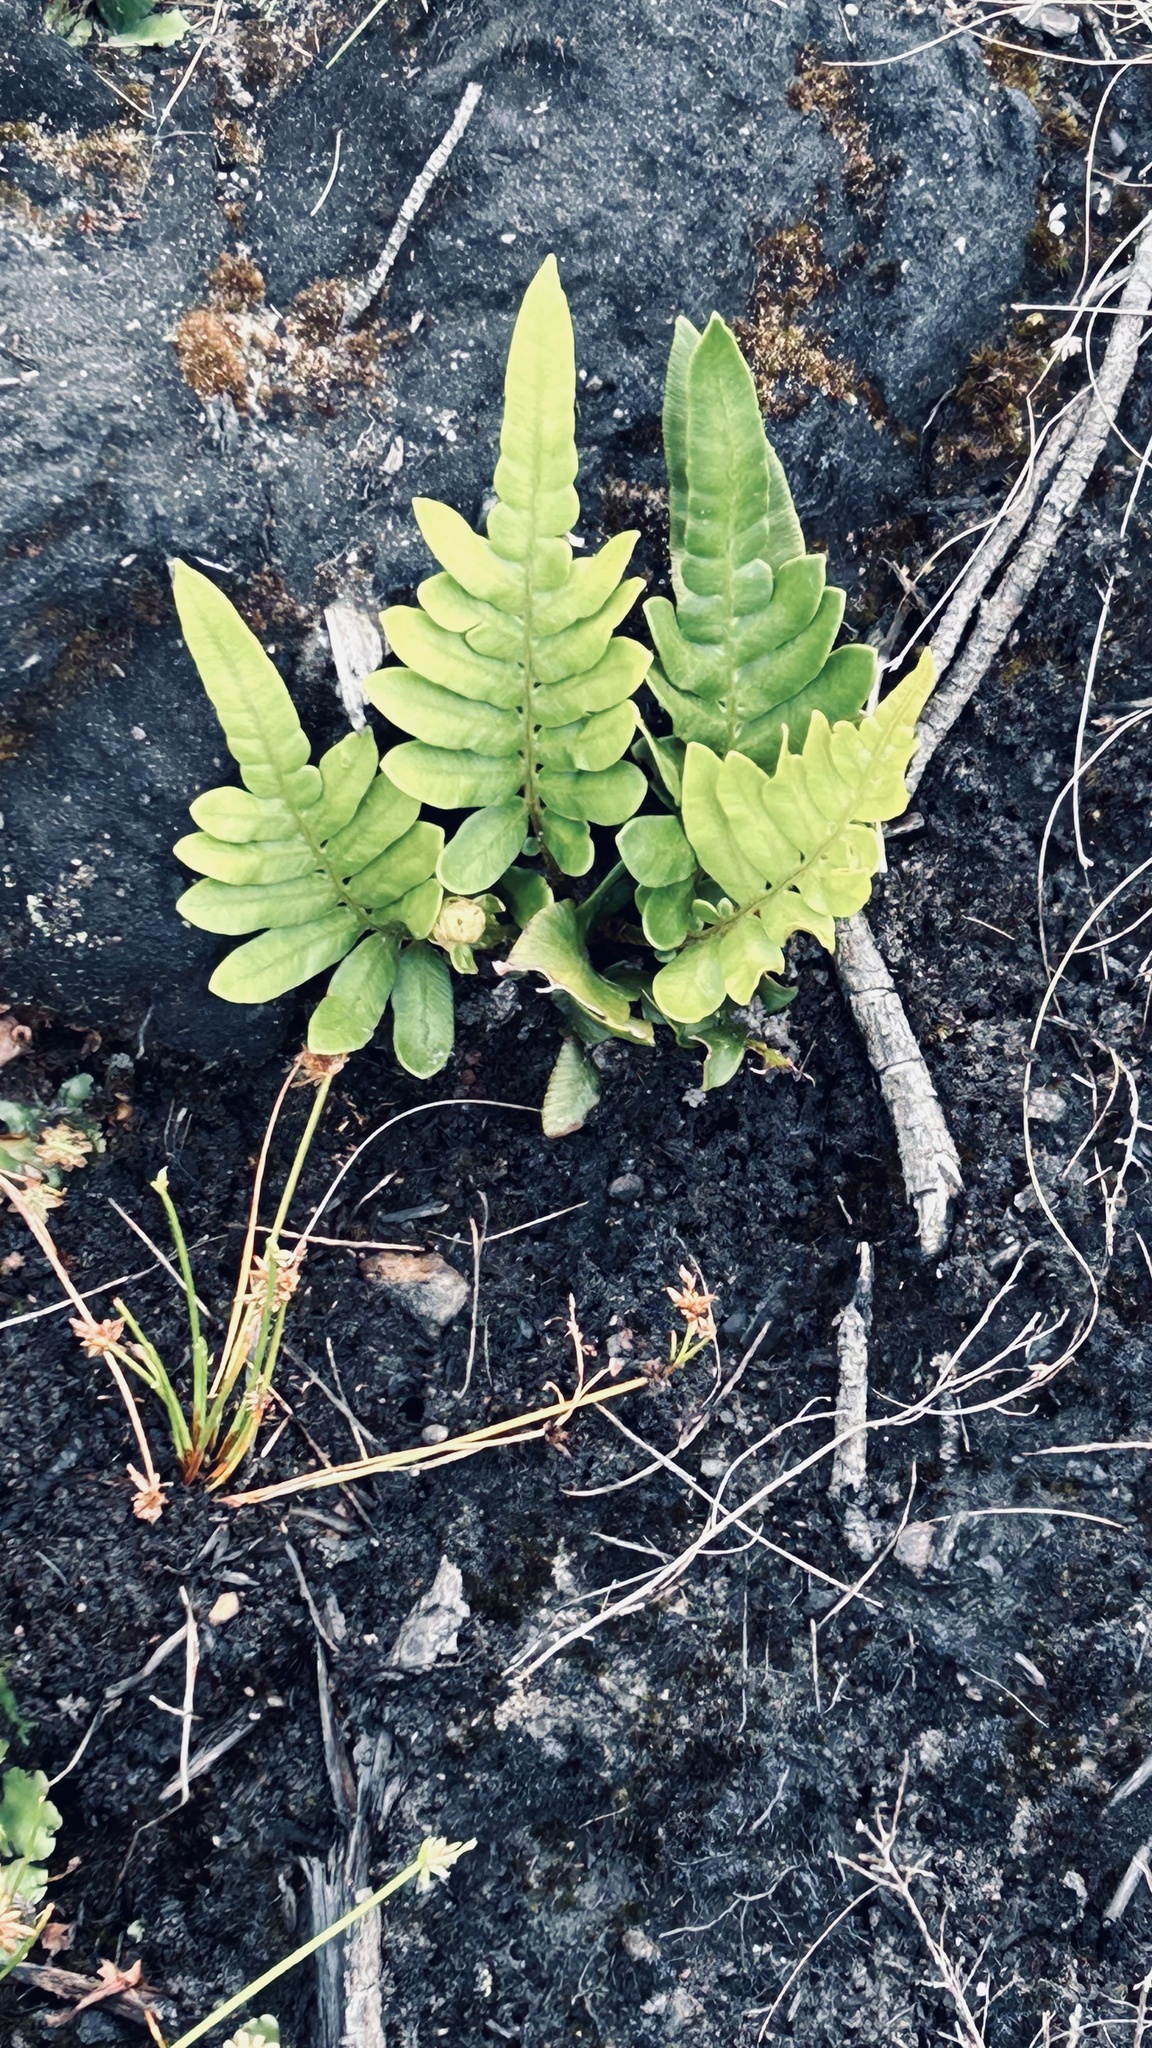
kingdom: Plantae
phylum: Tracheophyta
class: Polypodiopsida
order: Polypodiales
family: Blechnaceae
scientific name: Blechnaceae
